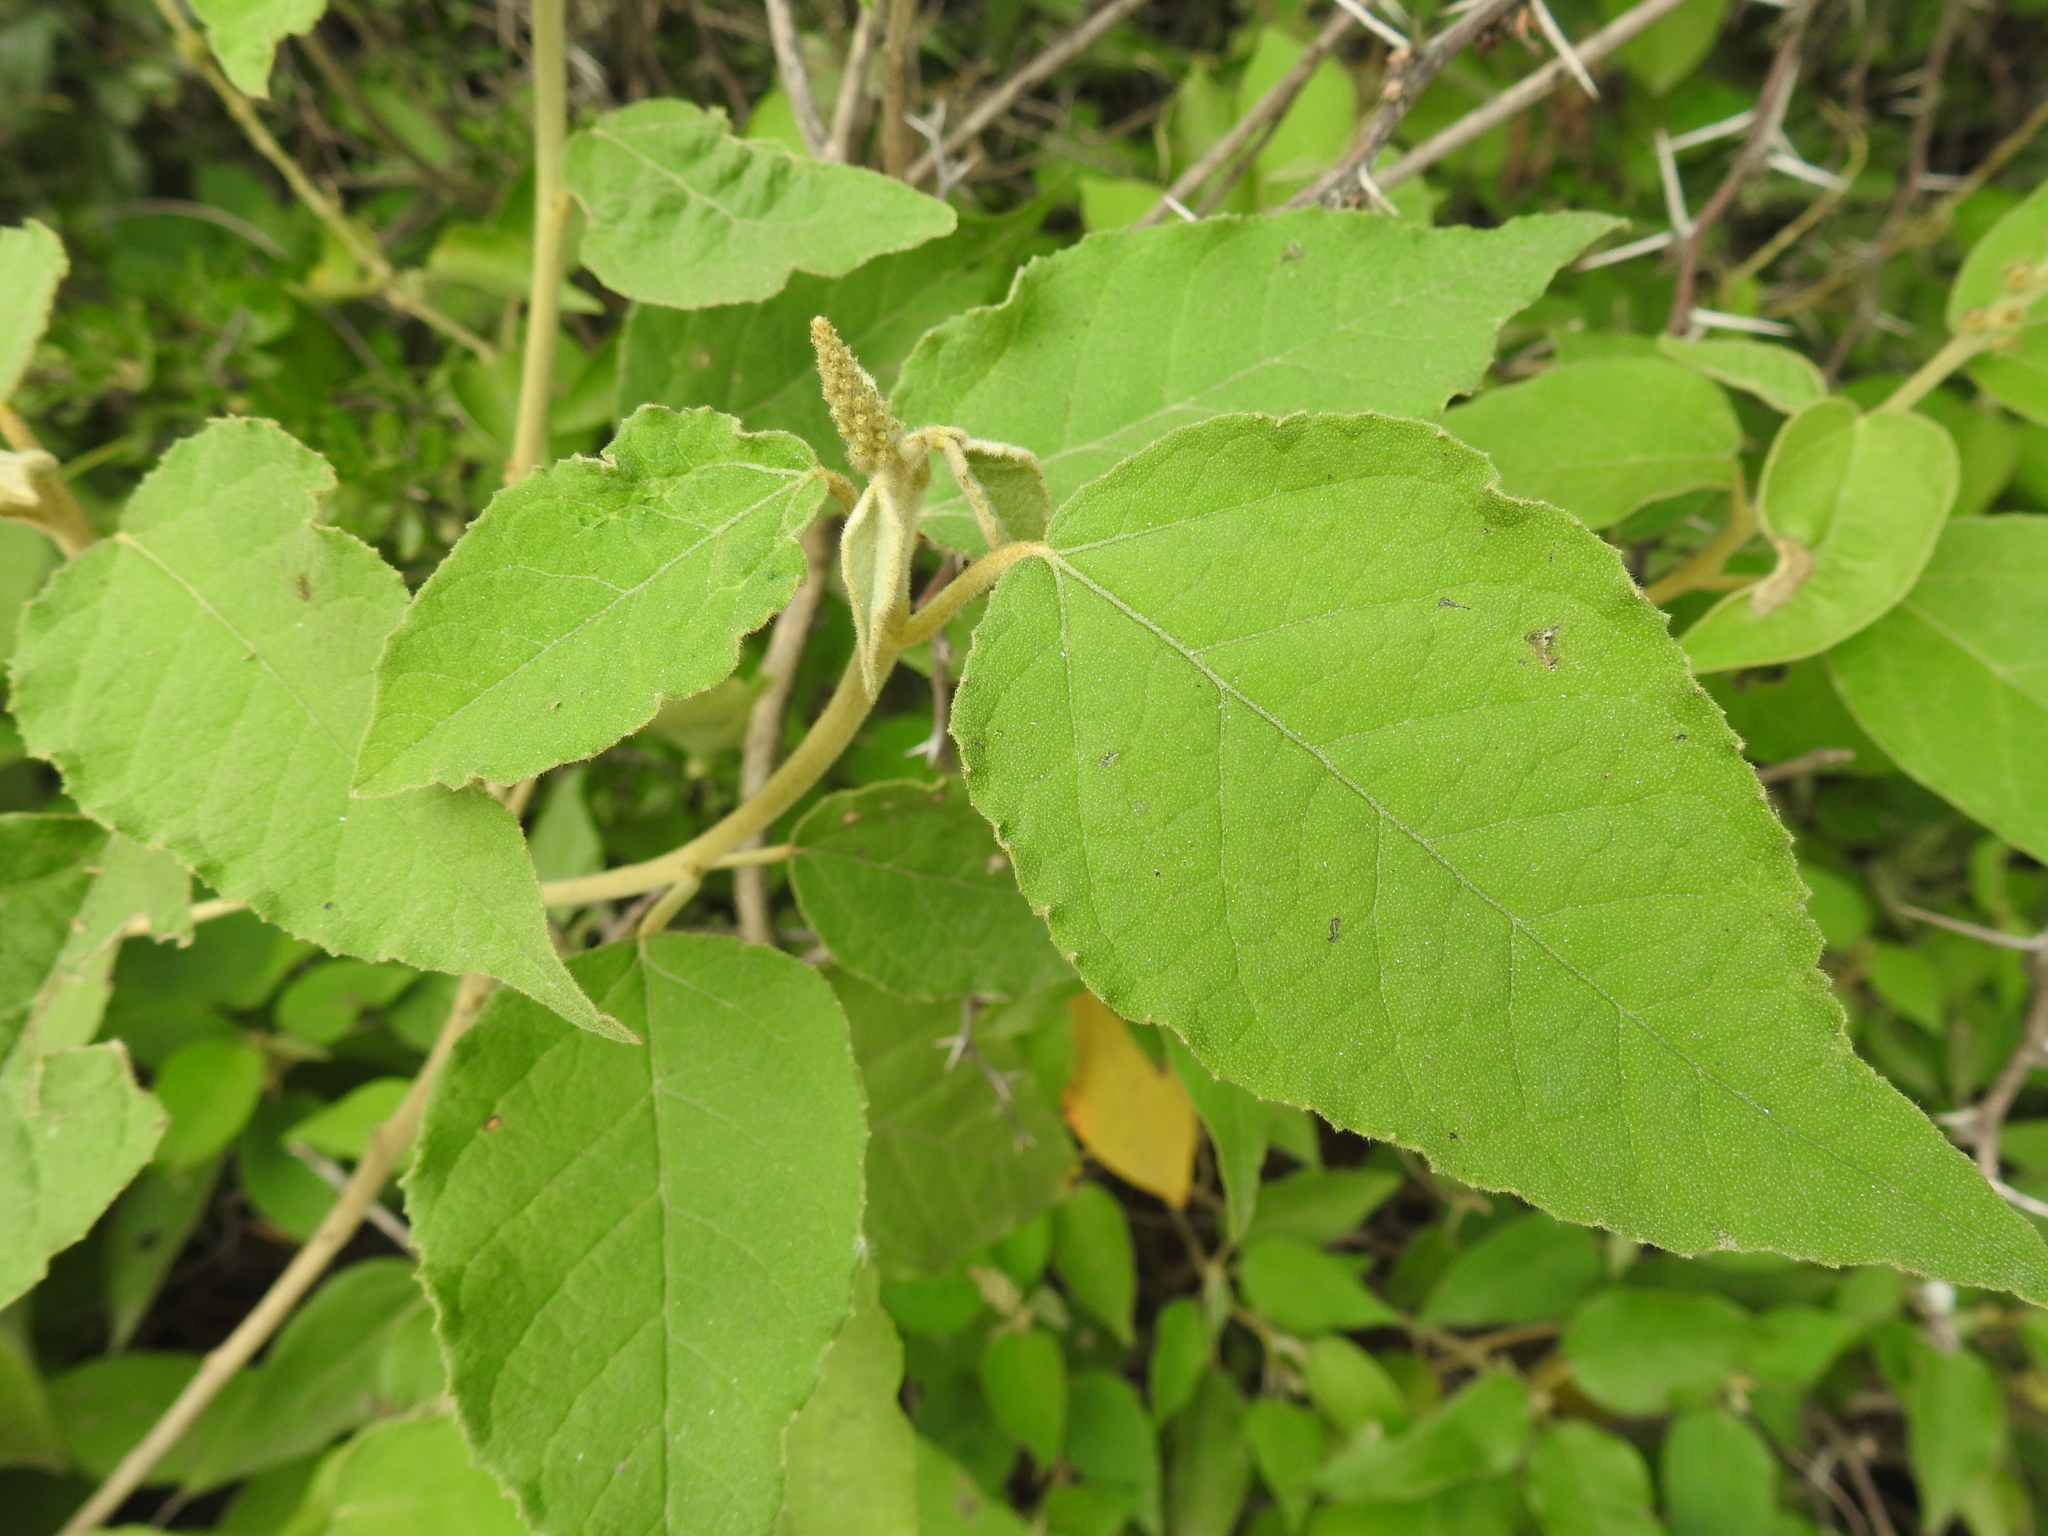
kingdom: Plantae
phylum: Tracheophyta
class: Magnoliopsida
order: Malpighiales
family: Euphorbiaceae
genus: Croton
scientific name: Croton lachnostachyus
